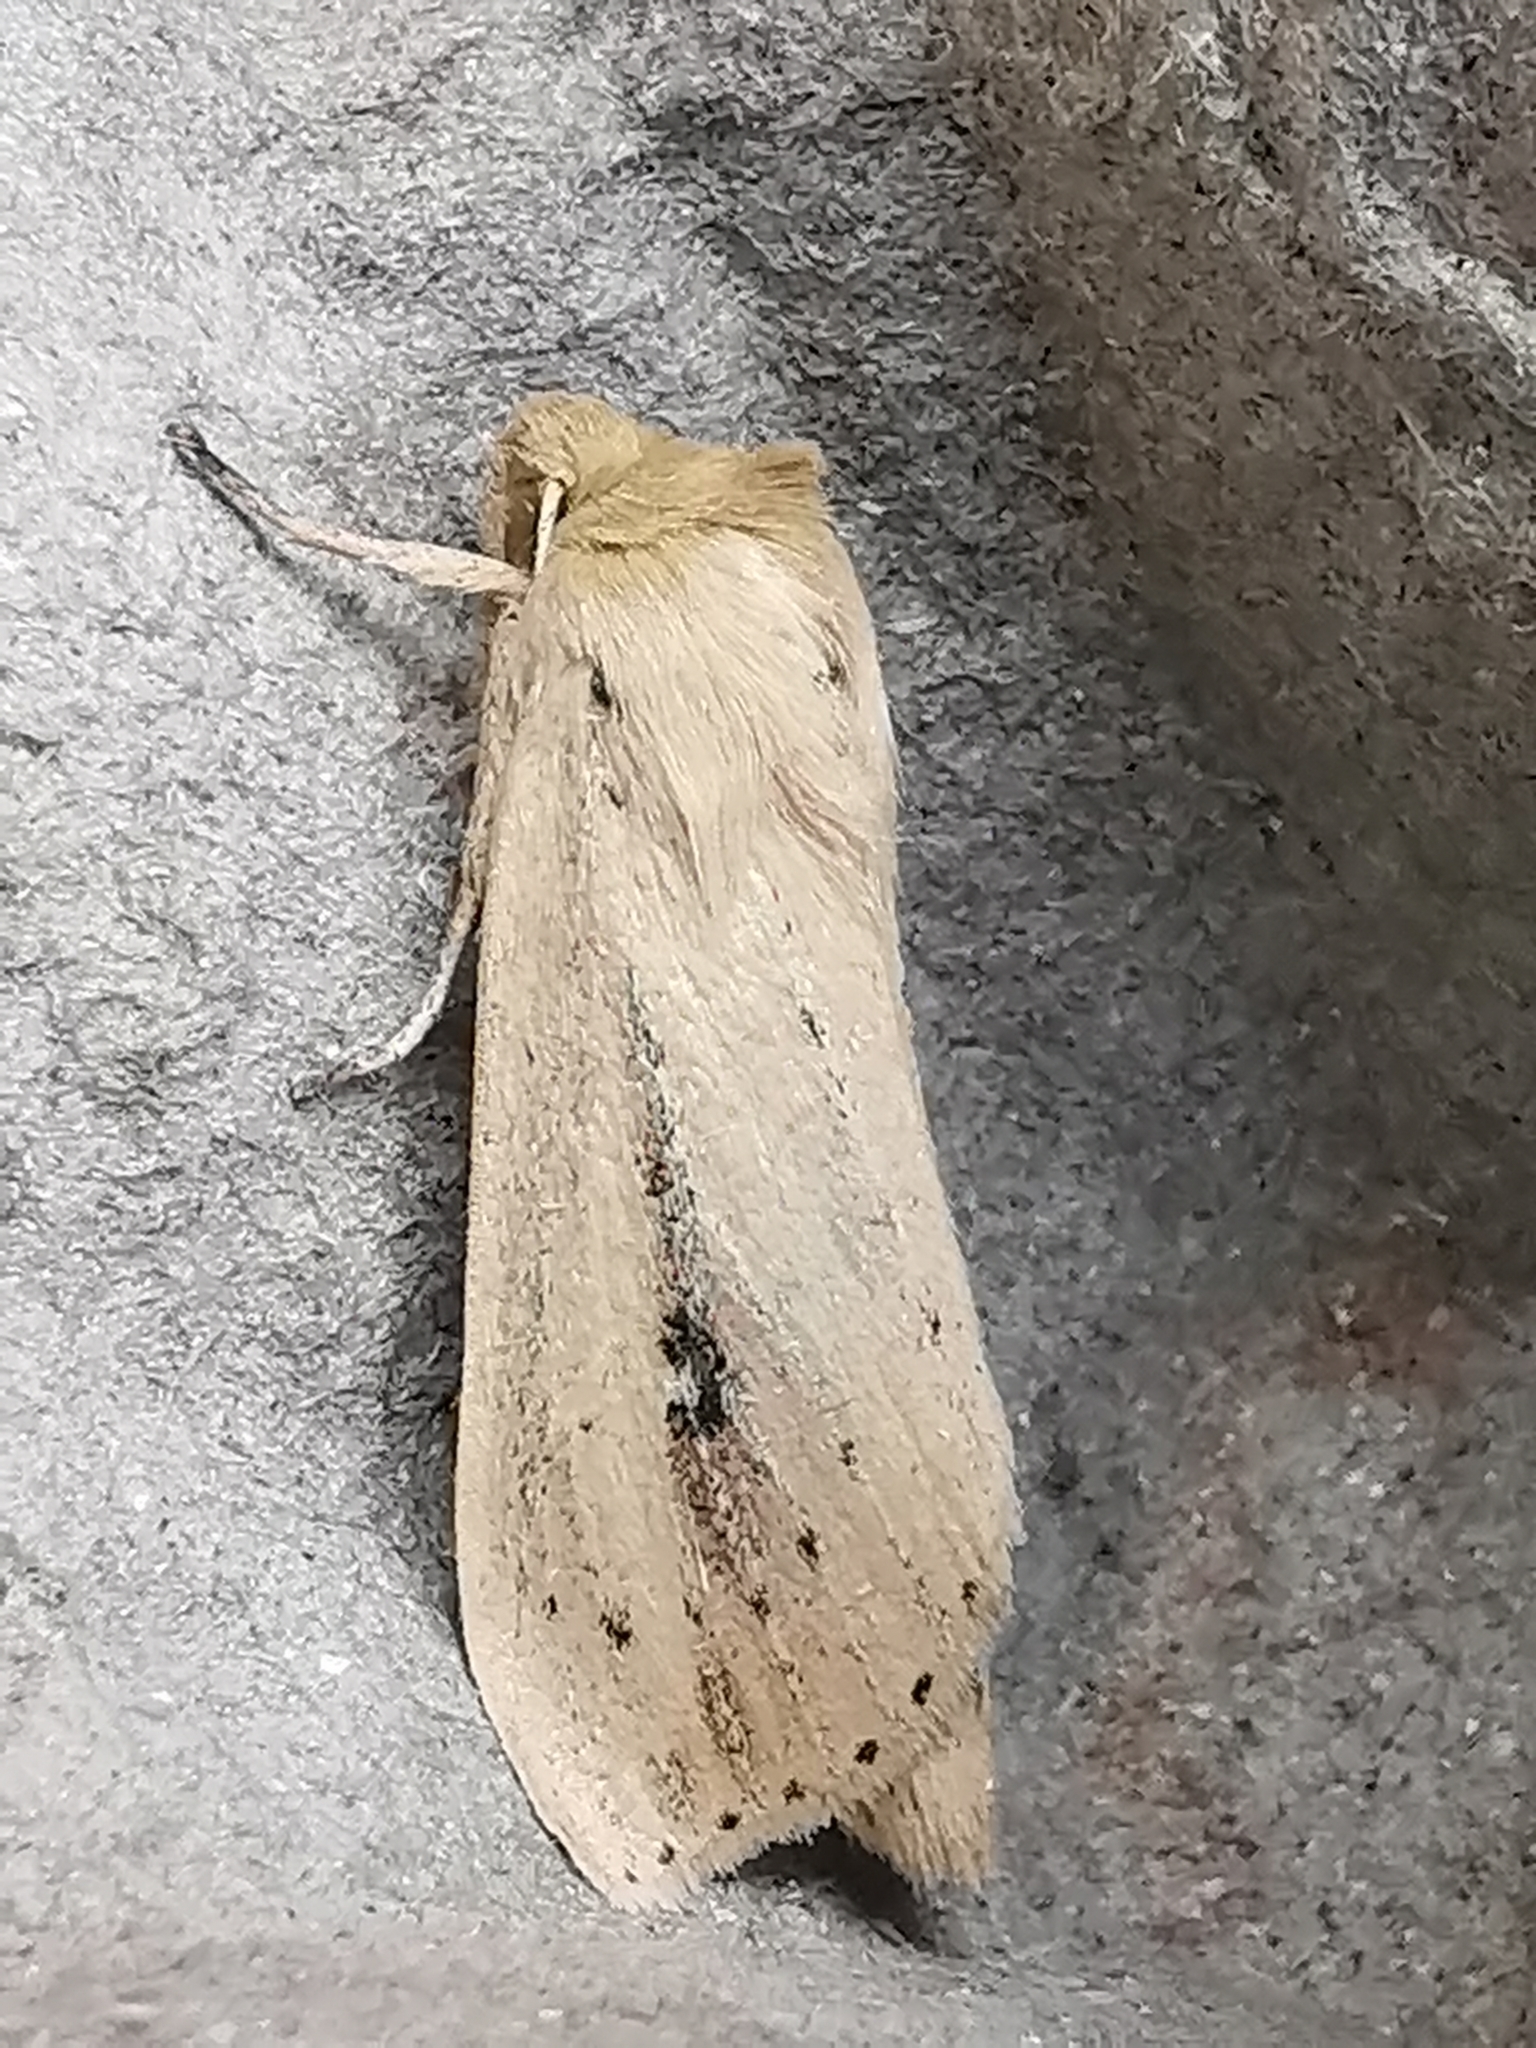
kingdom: Animalia
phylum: Arthropoda
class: Insecta
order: Lepidoptera
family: Noctuidae
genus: Globia
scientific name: Globia sparganii
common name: Webb's wainscot
